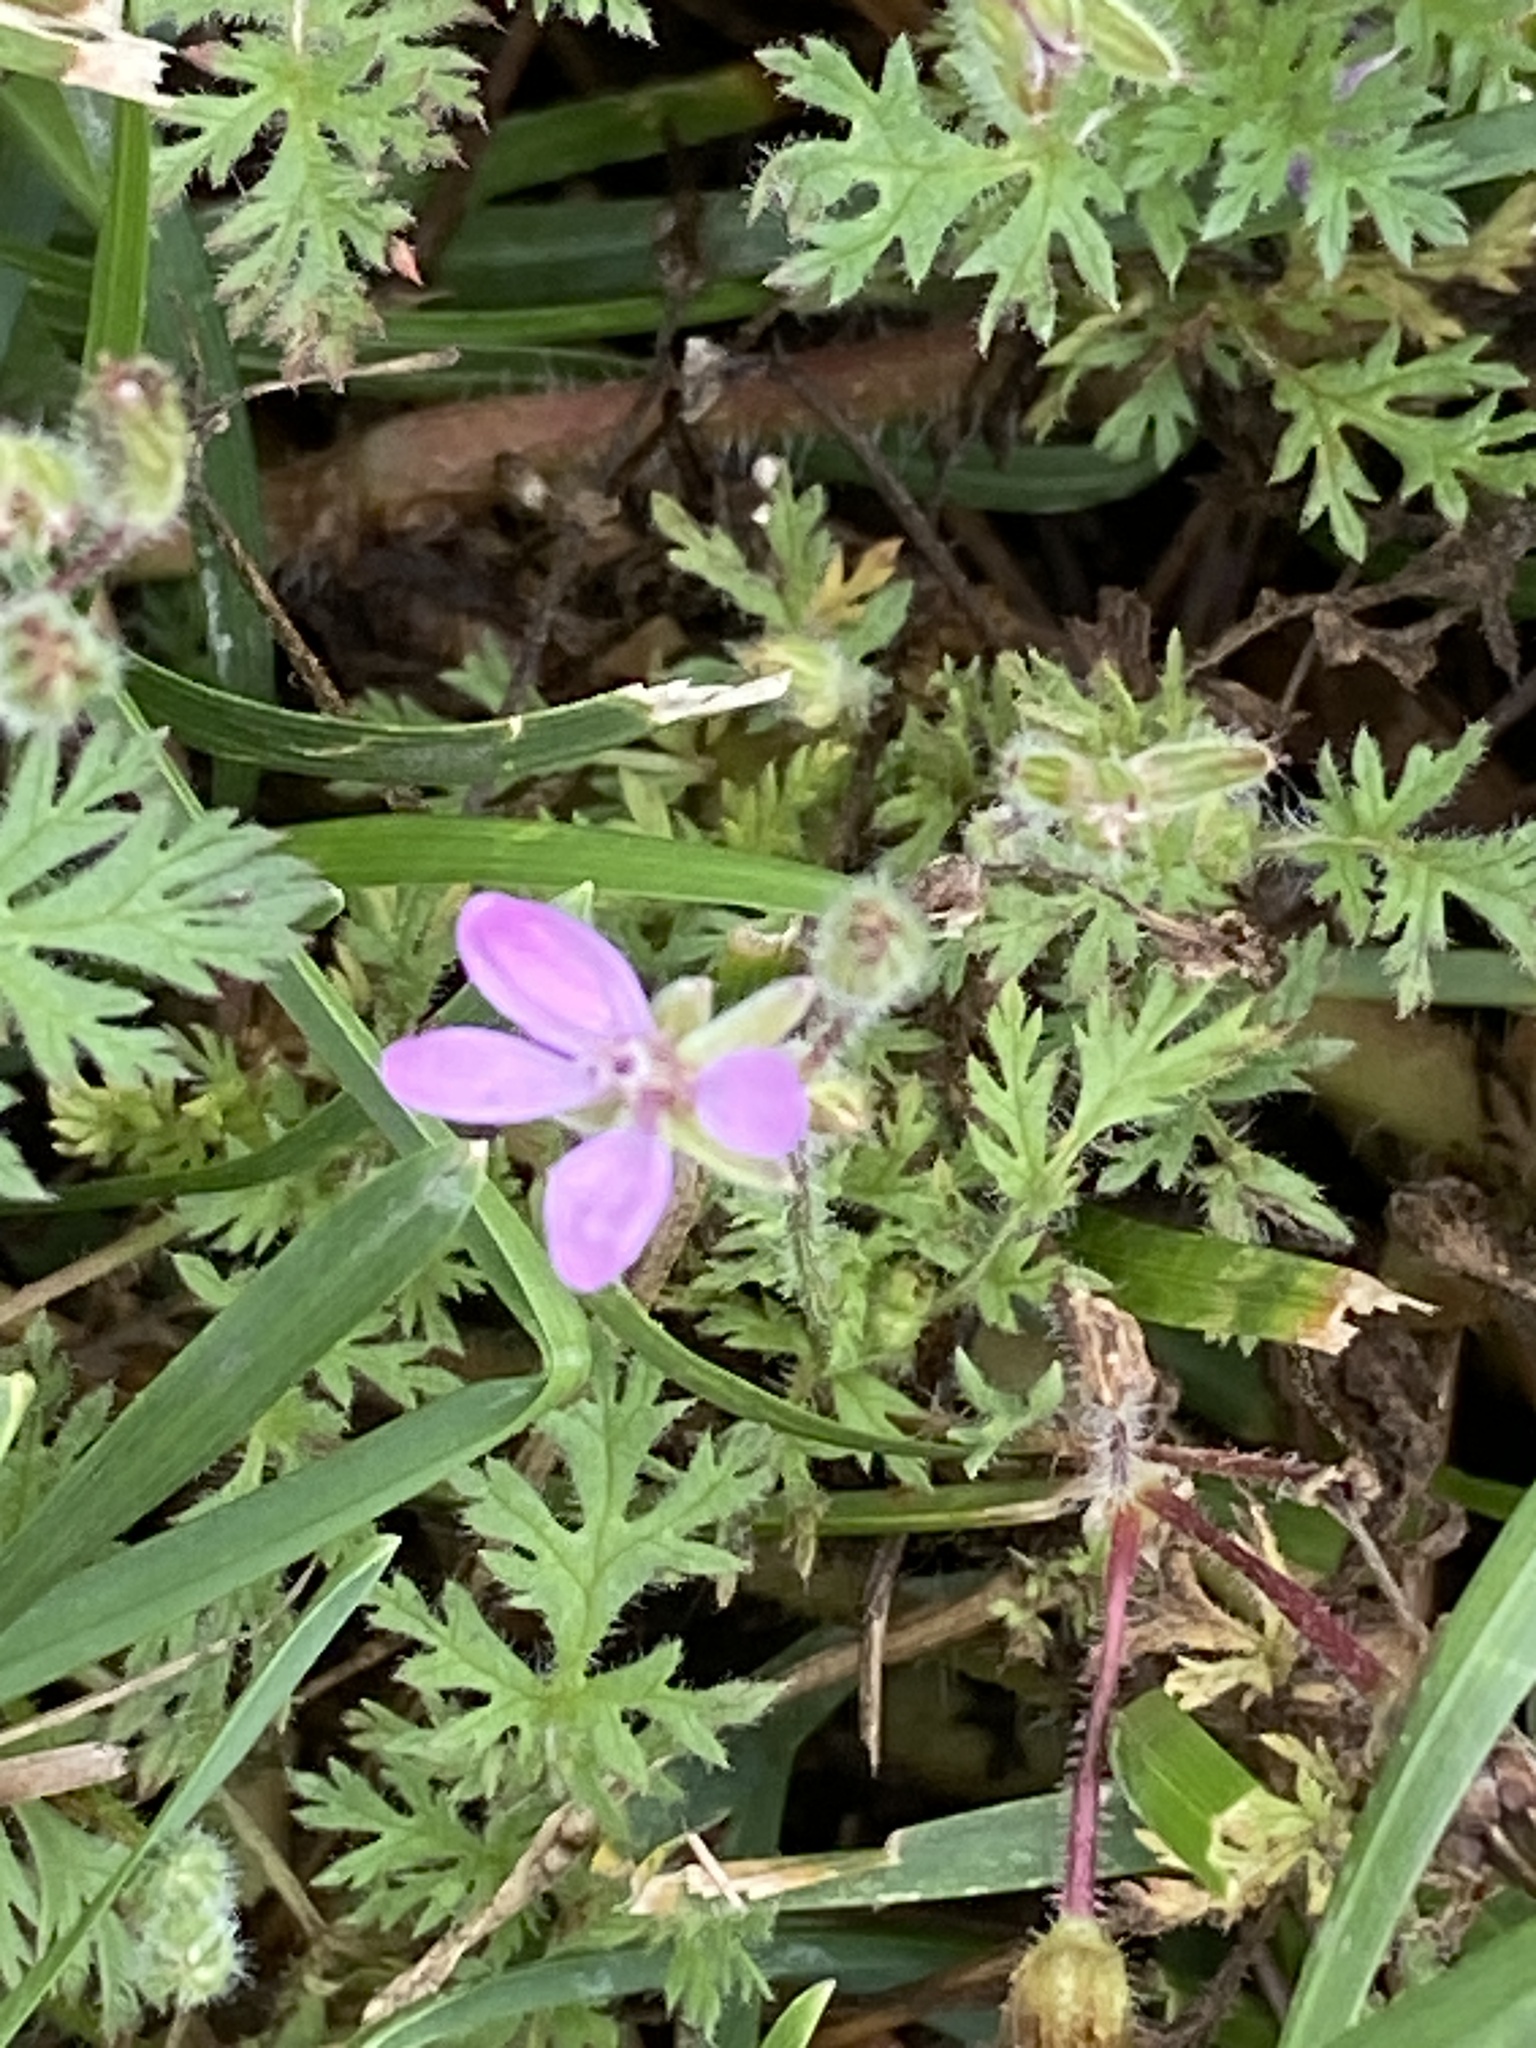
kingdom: Plantae
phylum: Tracheophyta
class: Magnoliopsida
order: Geraniales
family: Geraniaceae
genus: Erodium
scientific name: Erodium cicutarium
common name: Common stork's-bill
